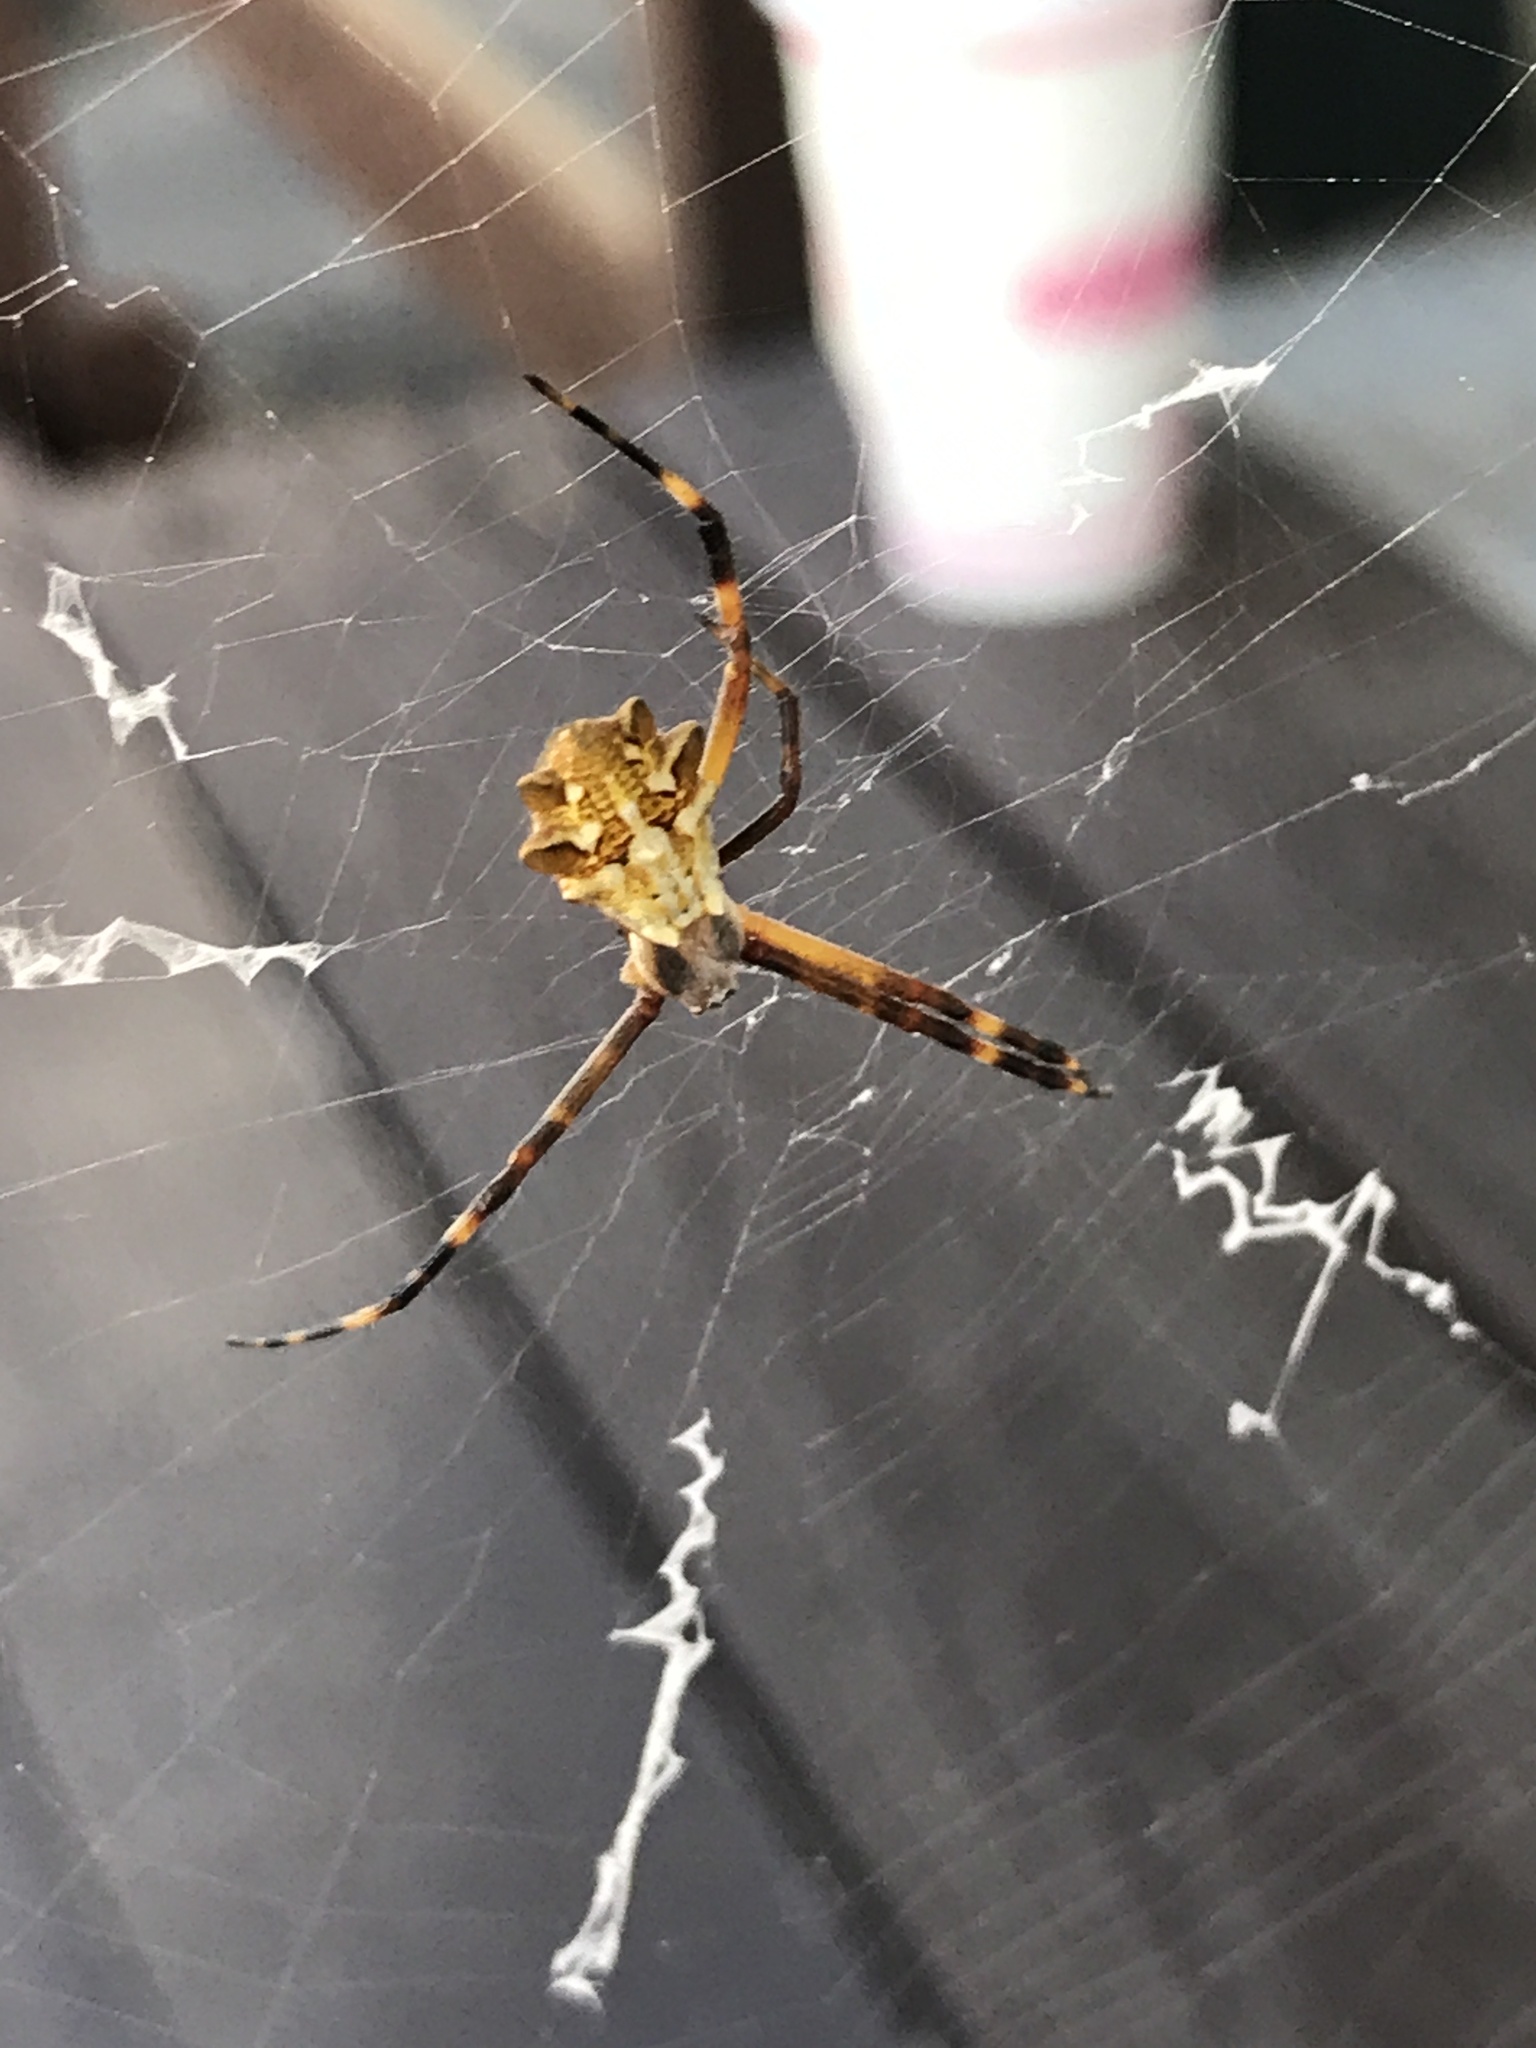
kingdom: Animalia
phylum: Arthropoda
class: Arachnida
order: Araneae
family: Araneidae
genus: Argiope
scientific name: Argiope argentata
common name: Orb weavers
